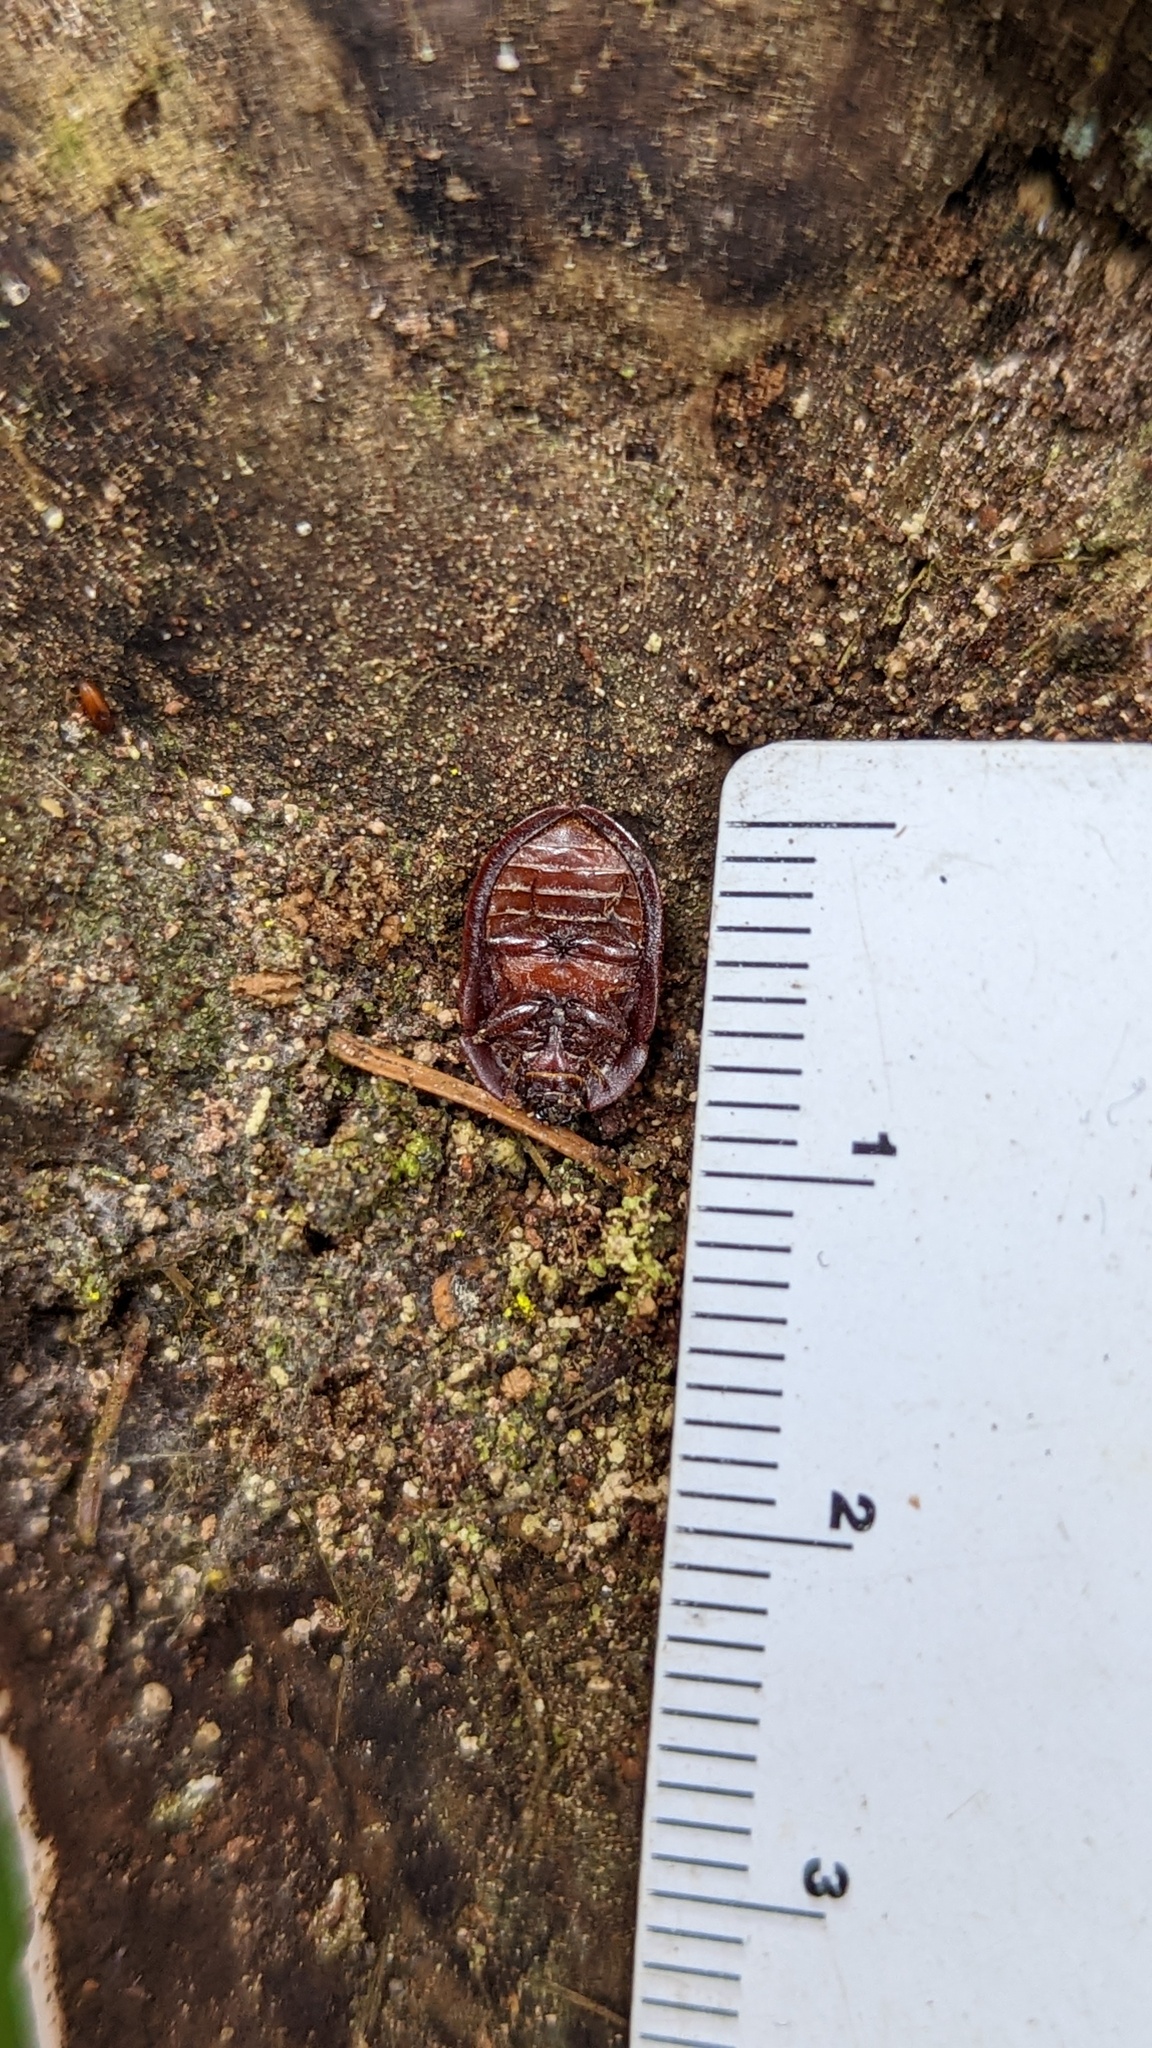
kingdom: Animalia
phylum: Arthropoda
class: Insecta
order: Coleoptera
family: Trogossitidae
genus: Peltis
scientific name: Peltis pippingskoeldi
